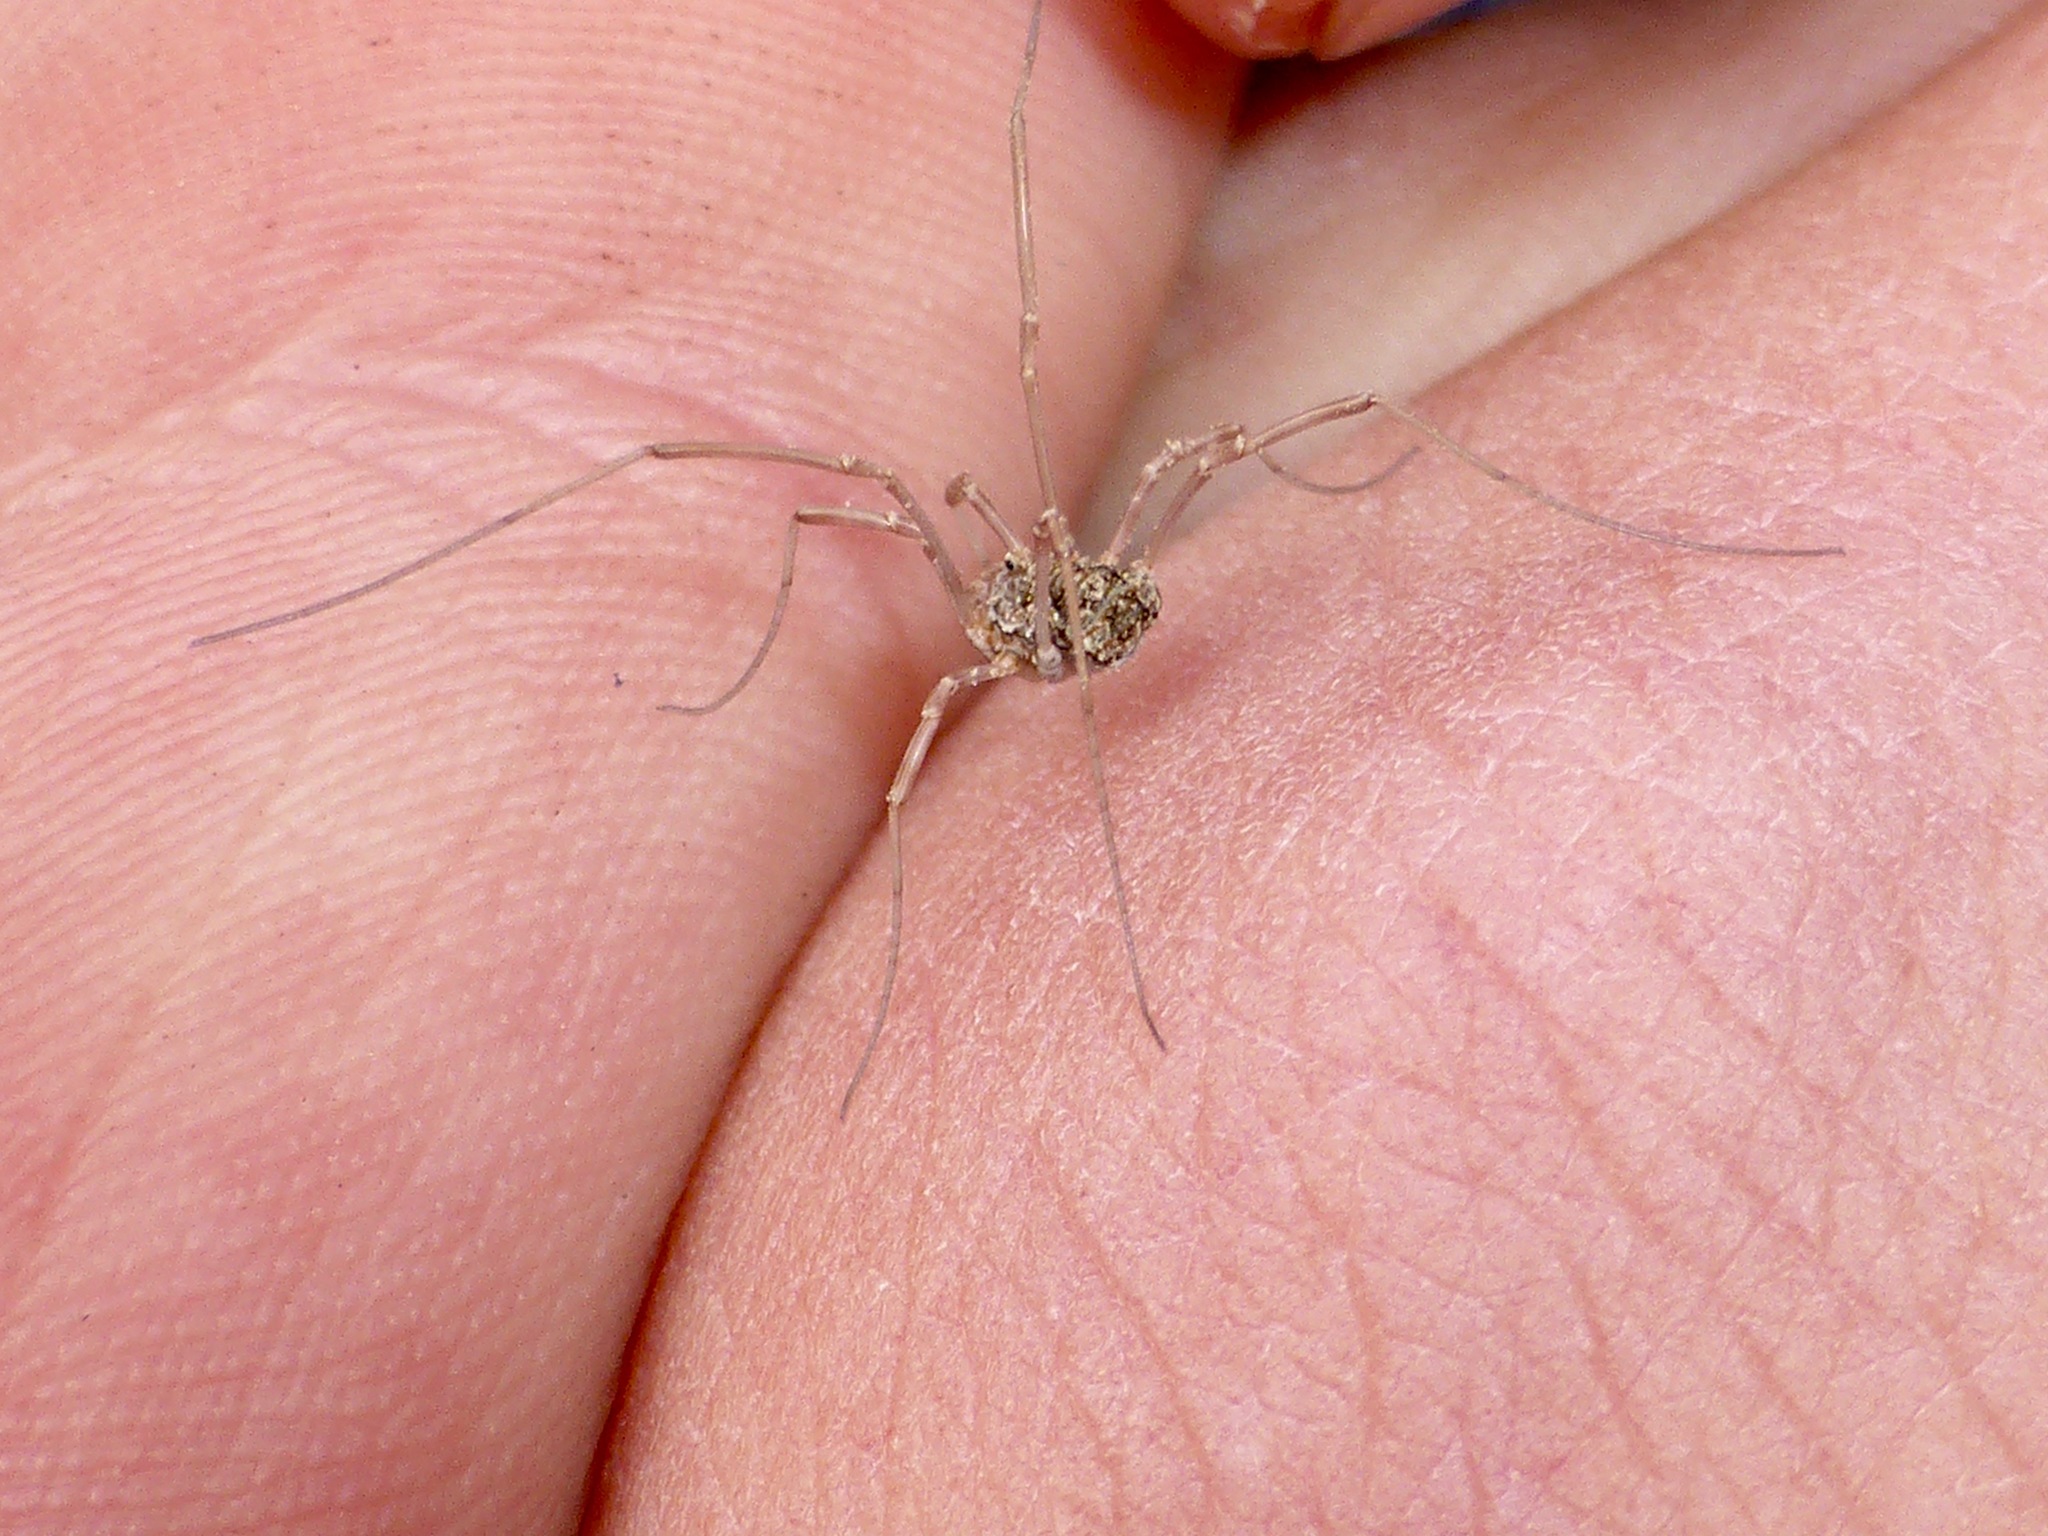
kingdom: Animalia
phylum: Arthropoda
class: Arachnida
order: Opiliones
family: Phalangiidae
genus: Phalangium
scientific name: Phalangium opilio
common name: Daddy longleg
